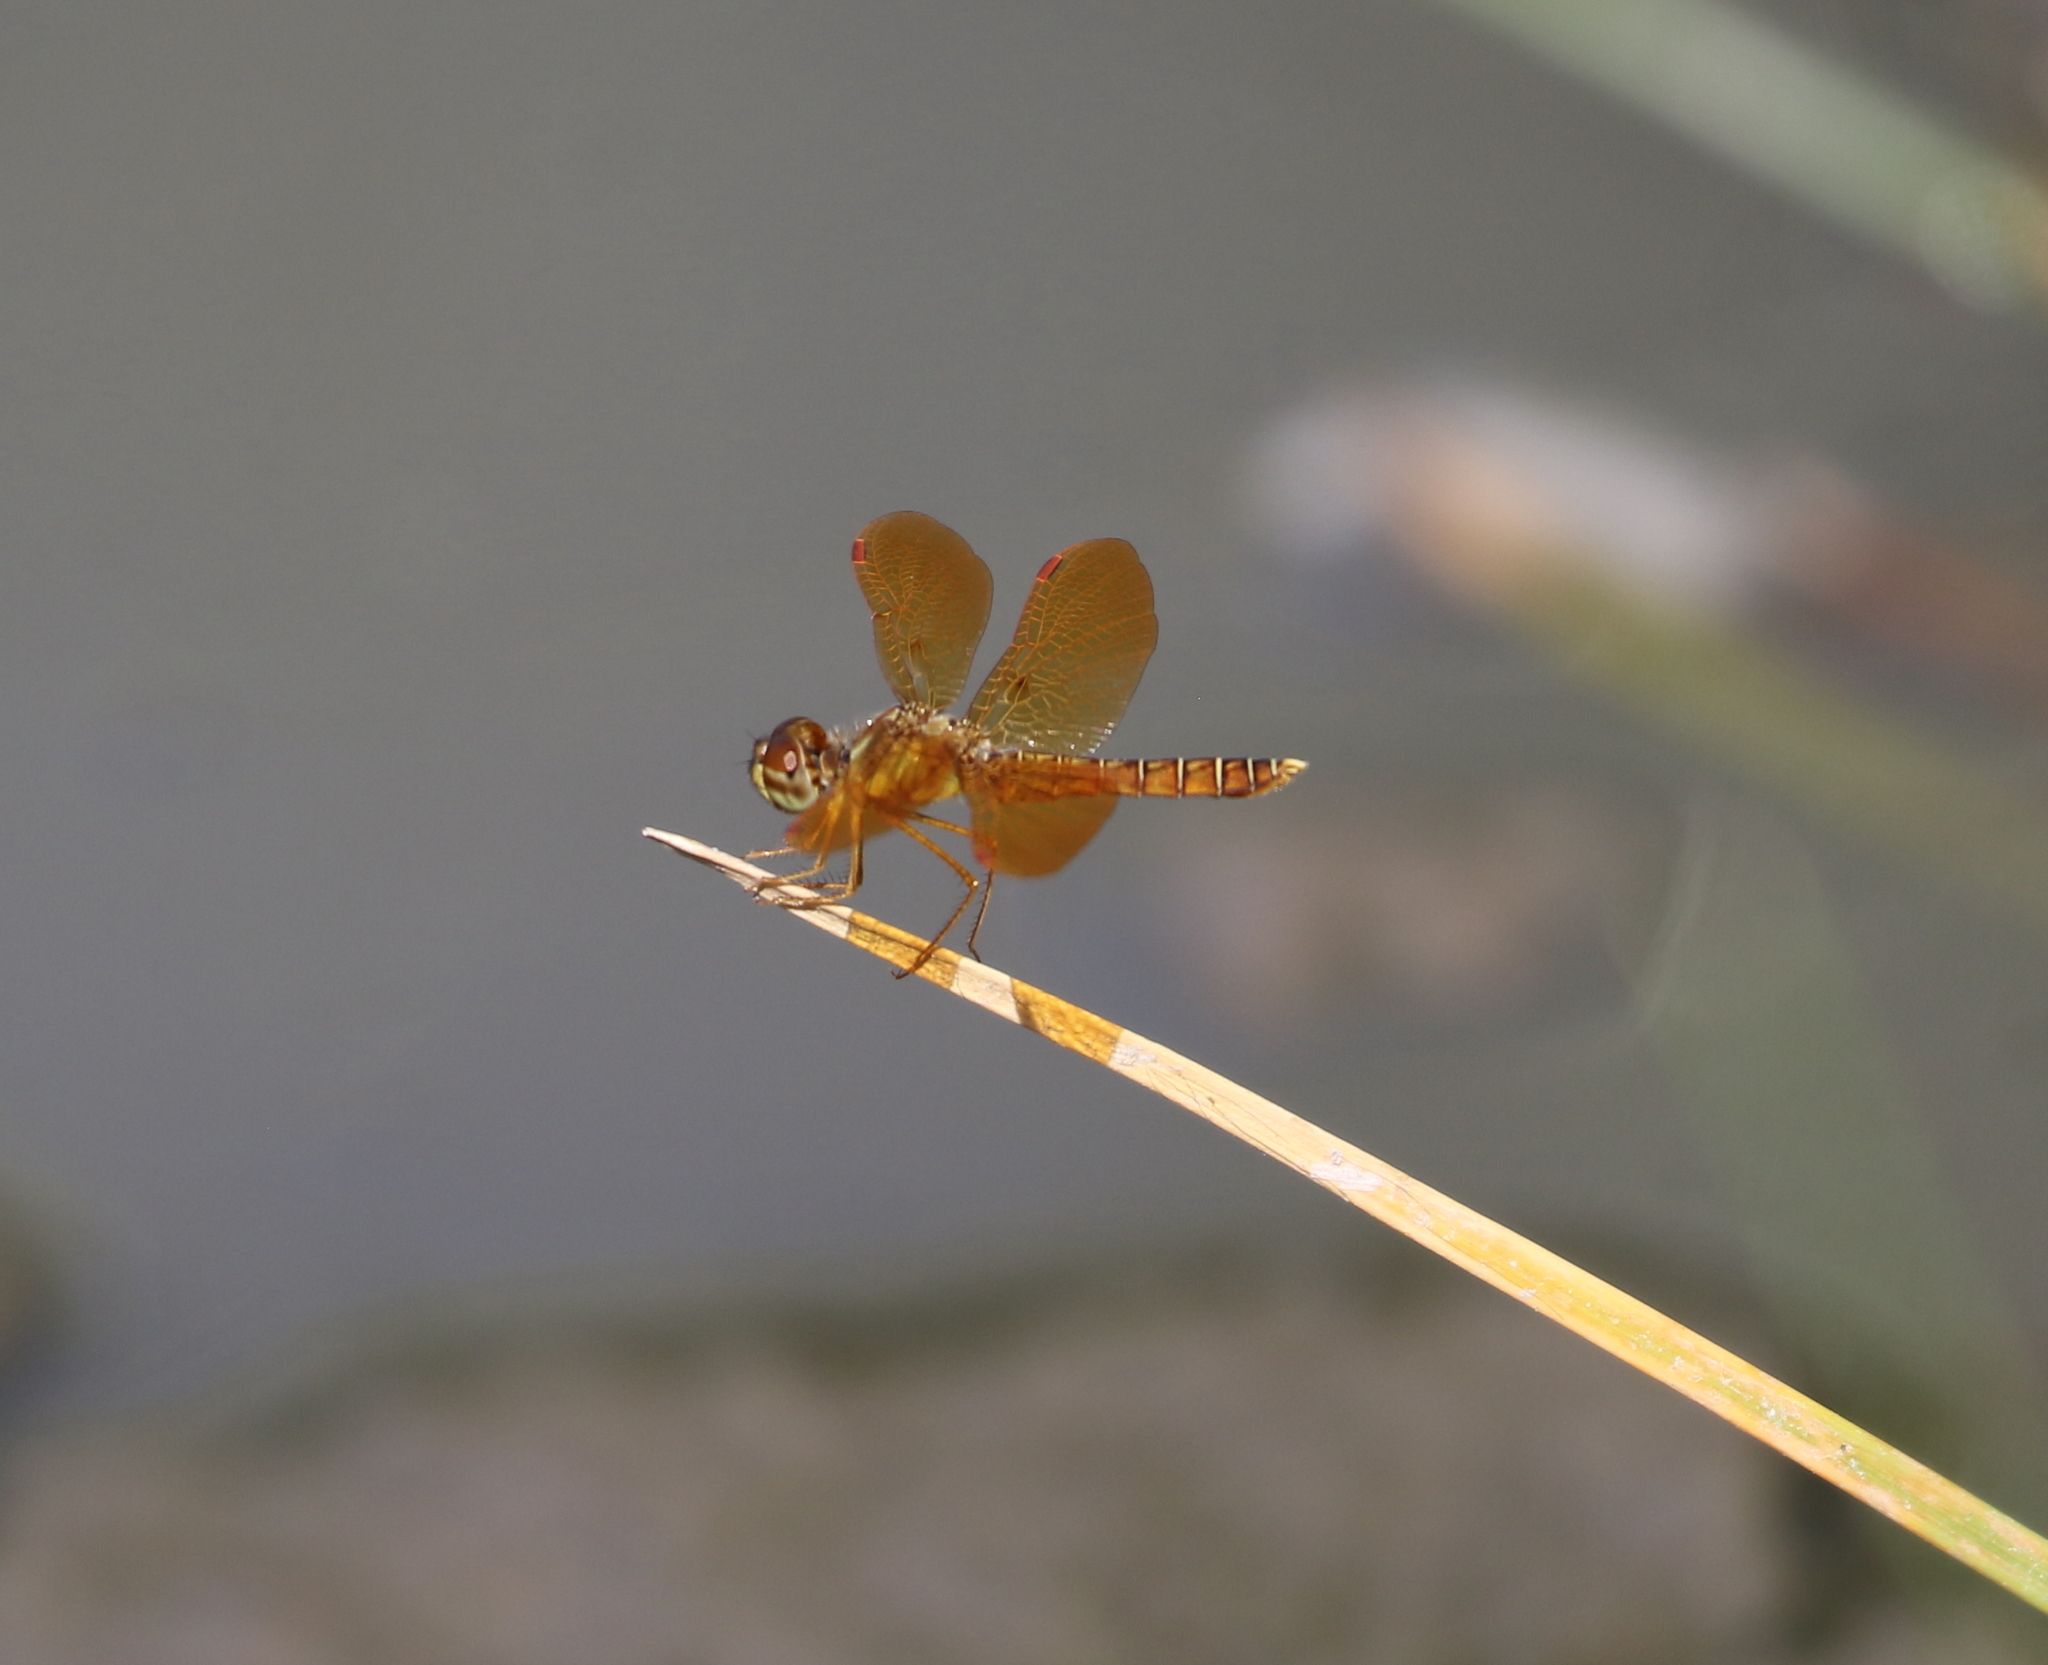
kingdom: Animalia
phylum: Arthropoda
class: Insecta
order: Odonata
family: Libellulidae
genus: Perithemis
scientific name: Perithemis tenera
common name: Eastern amberwing
